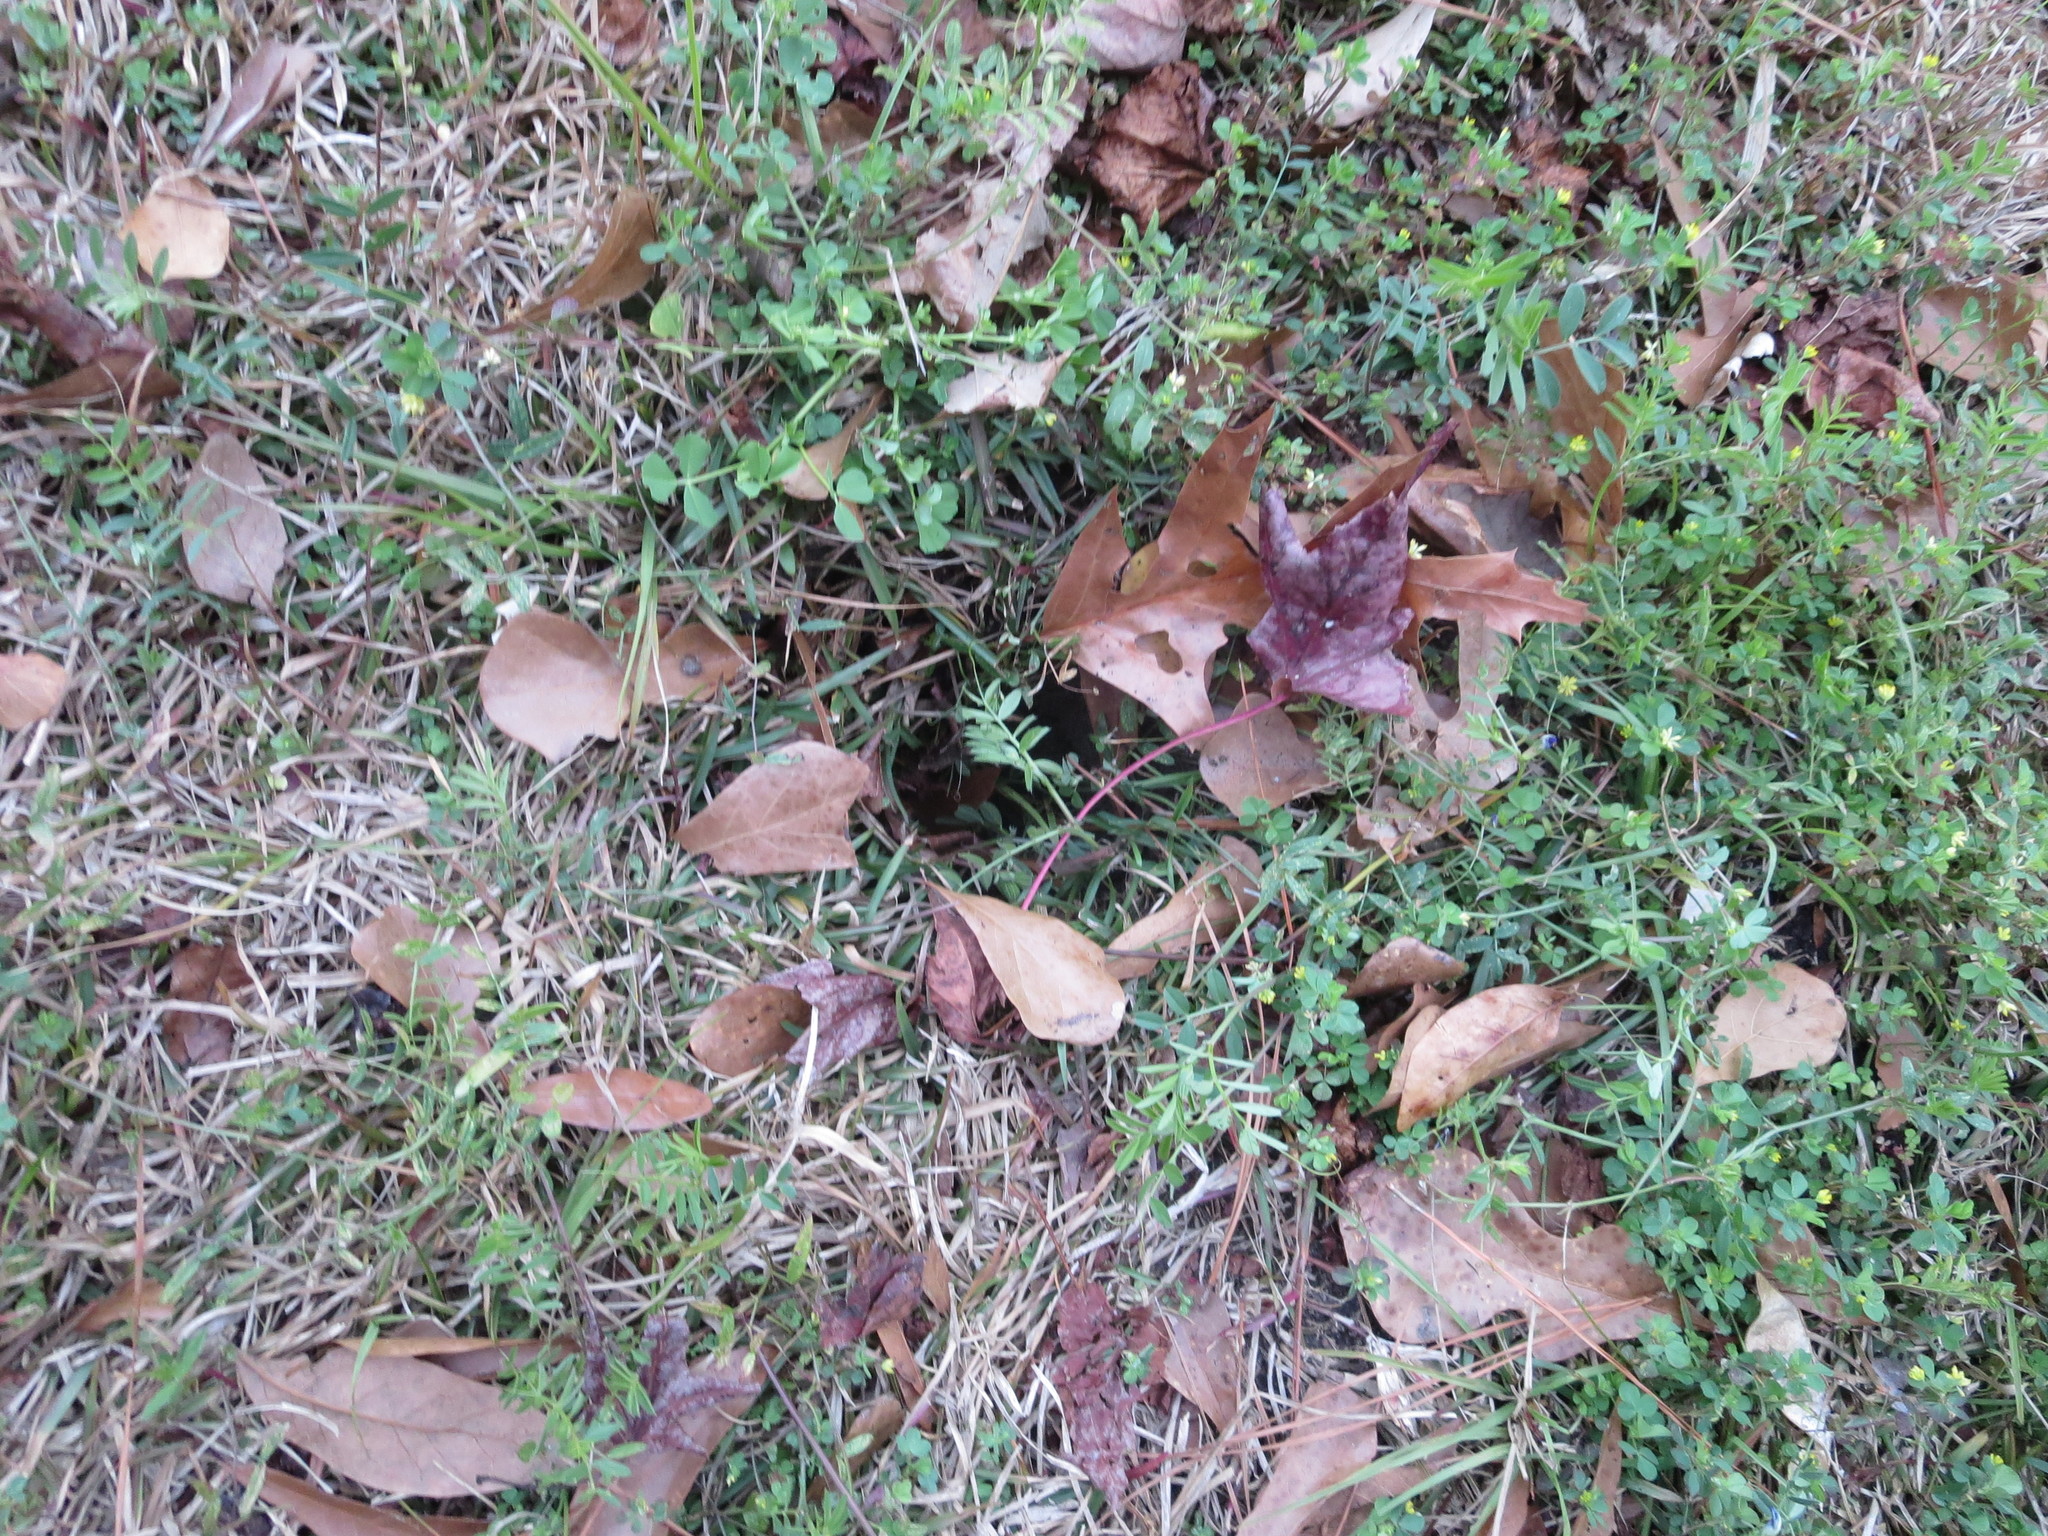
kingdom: Plantae
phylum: Tracheophyta
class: Magnoliopsida
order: Fagales
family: Fagaceae
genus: Quercus
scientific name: Quercus nigra
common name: Water oak
